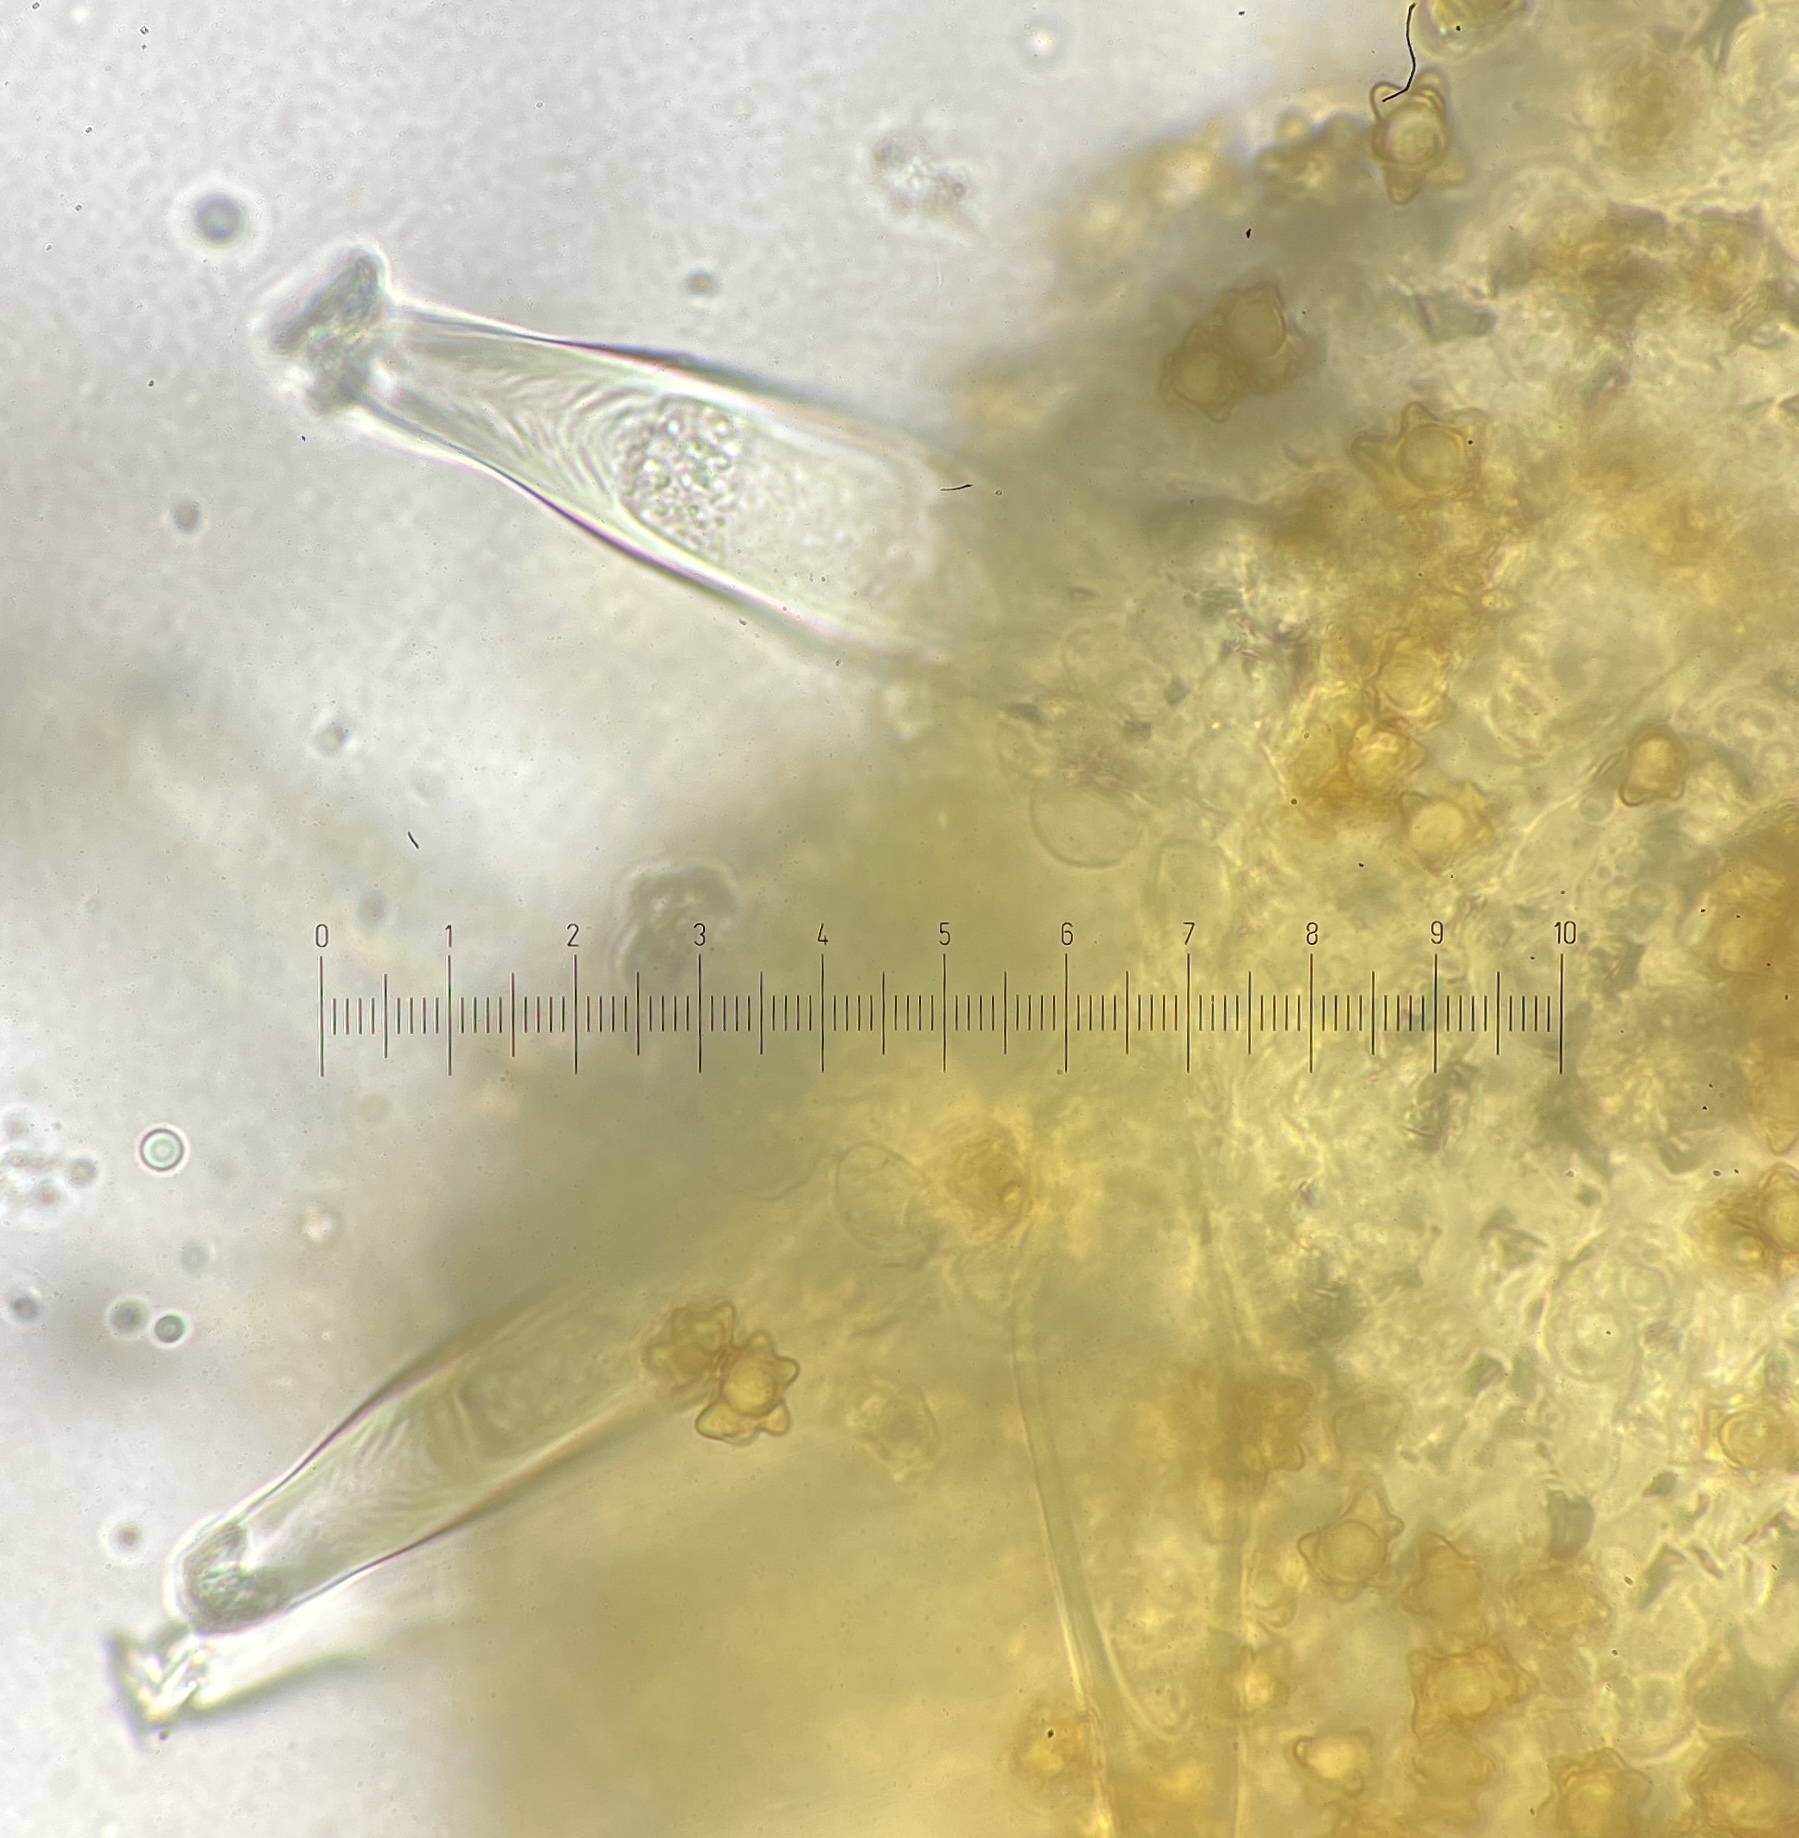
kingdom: Fungi
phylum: Basidiomycota
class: Agaricomycetes
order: Agaricales
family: Inocybaceae
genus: Inocybe
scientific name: Inocybe intricata
